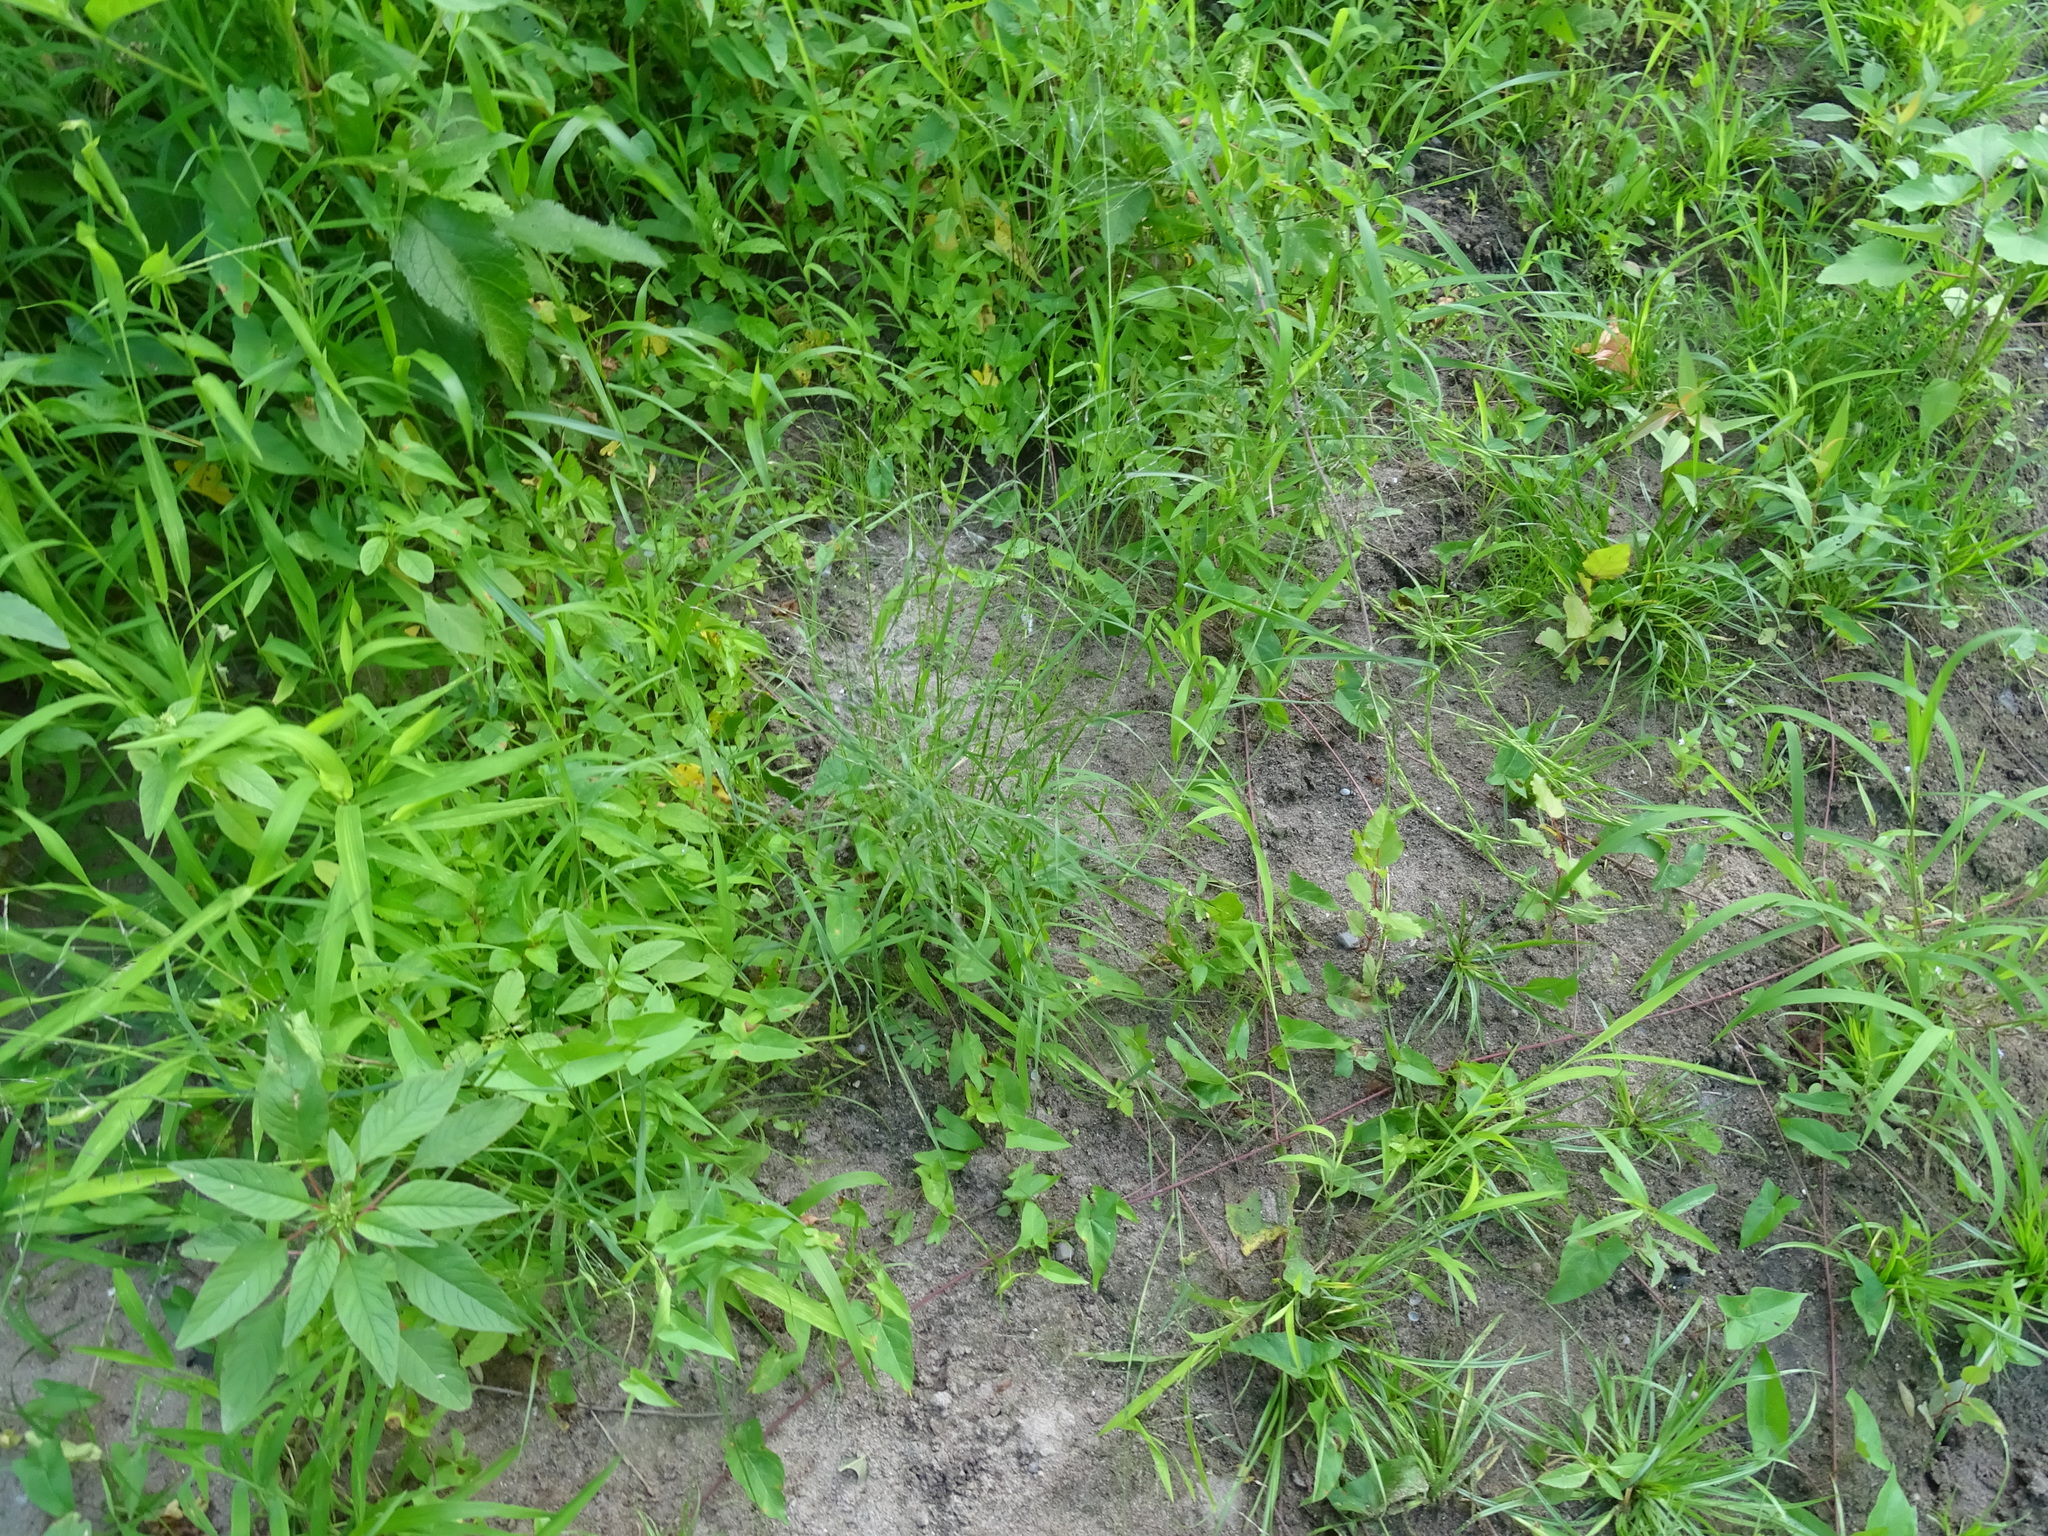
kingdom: Plantae
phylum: Tracheophyta
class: Liliopsida
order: Poales
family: Poaceae
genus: Eragrostis
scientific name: Eragrostis pectinacea
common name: Tufted lovegrass
